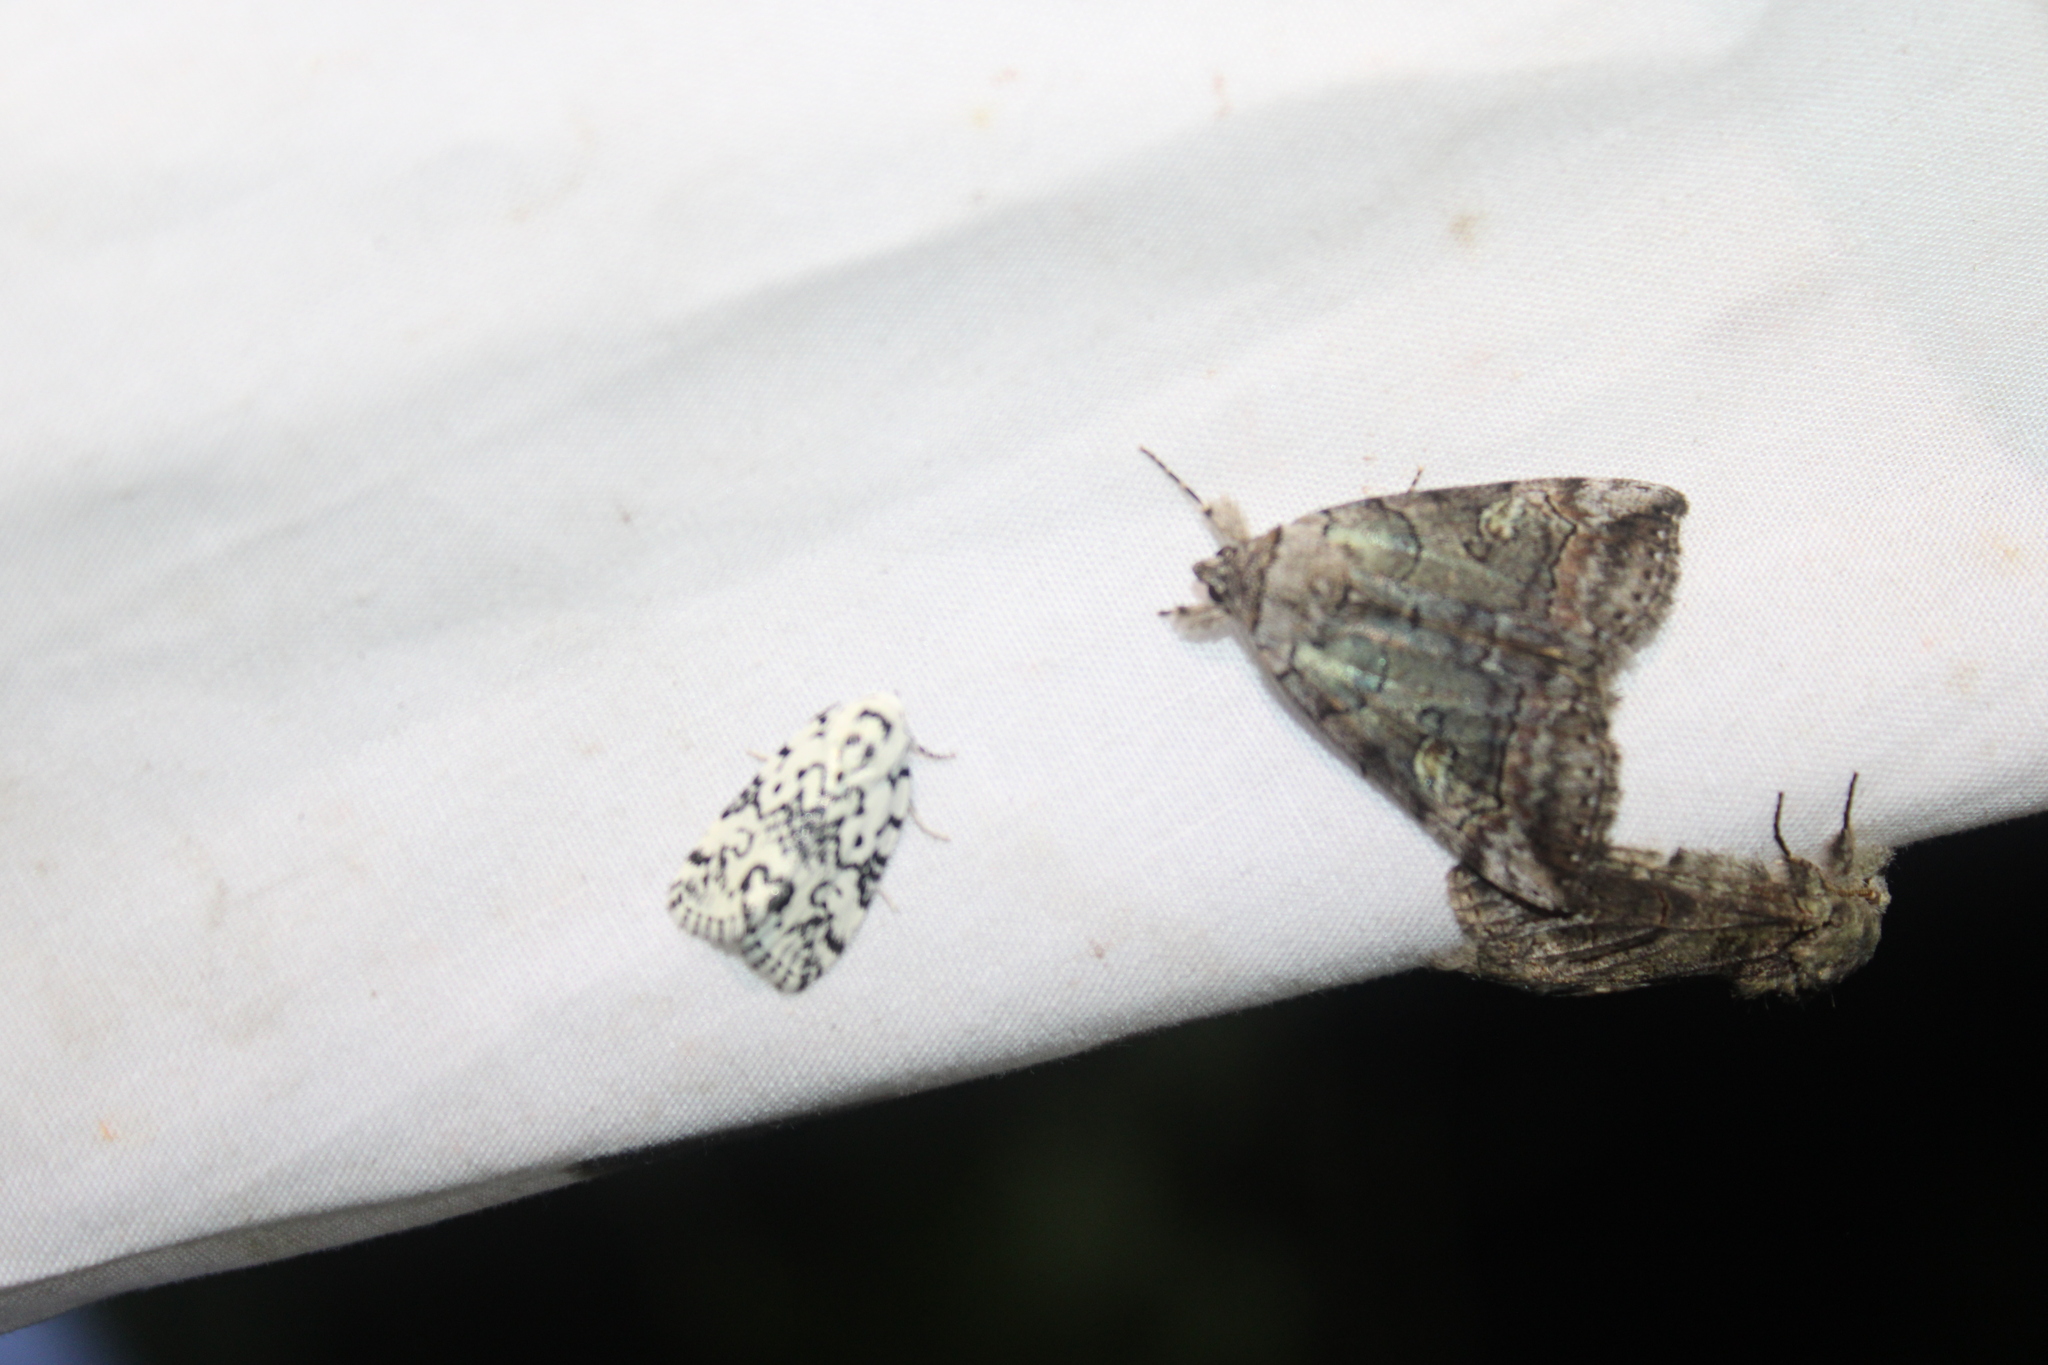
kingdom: Animalia
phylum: Arthropoda
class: Insecta
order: Lepidoptera
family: Erebidae
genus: Catocala
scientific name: Catocala similis
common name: Similar underwing
